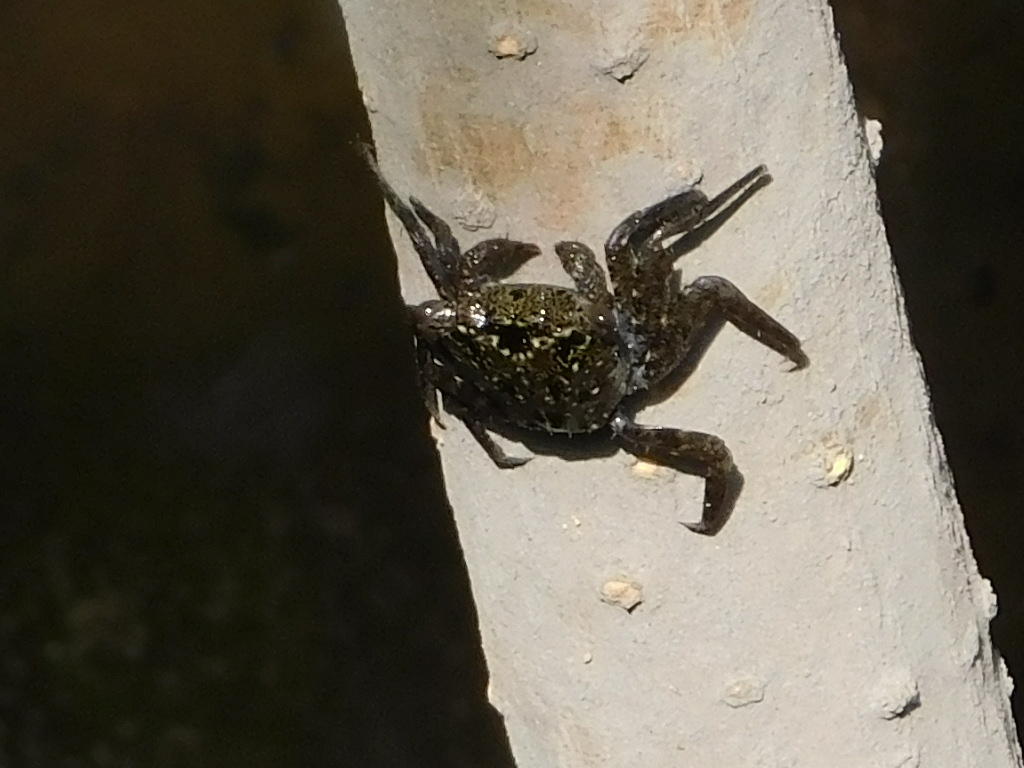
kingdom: Animalia
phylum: Arthropoda
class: Malacostraca
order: Decapoda
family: Sesarmidae
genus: Aratus
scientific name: Aratus pisonii
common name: Mangrove crab
